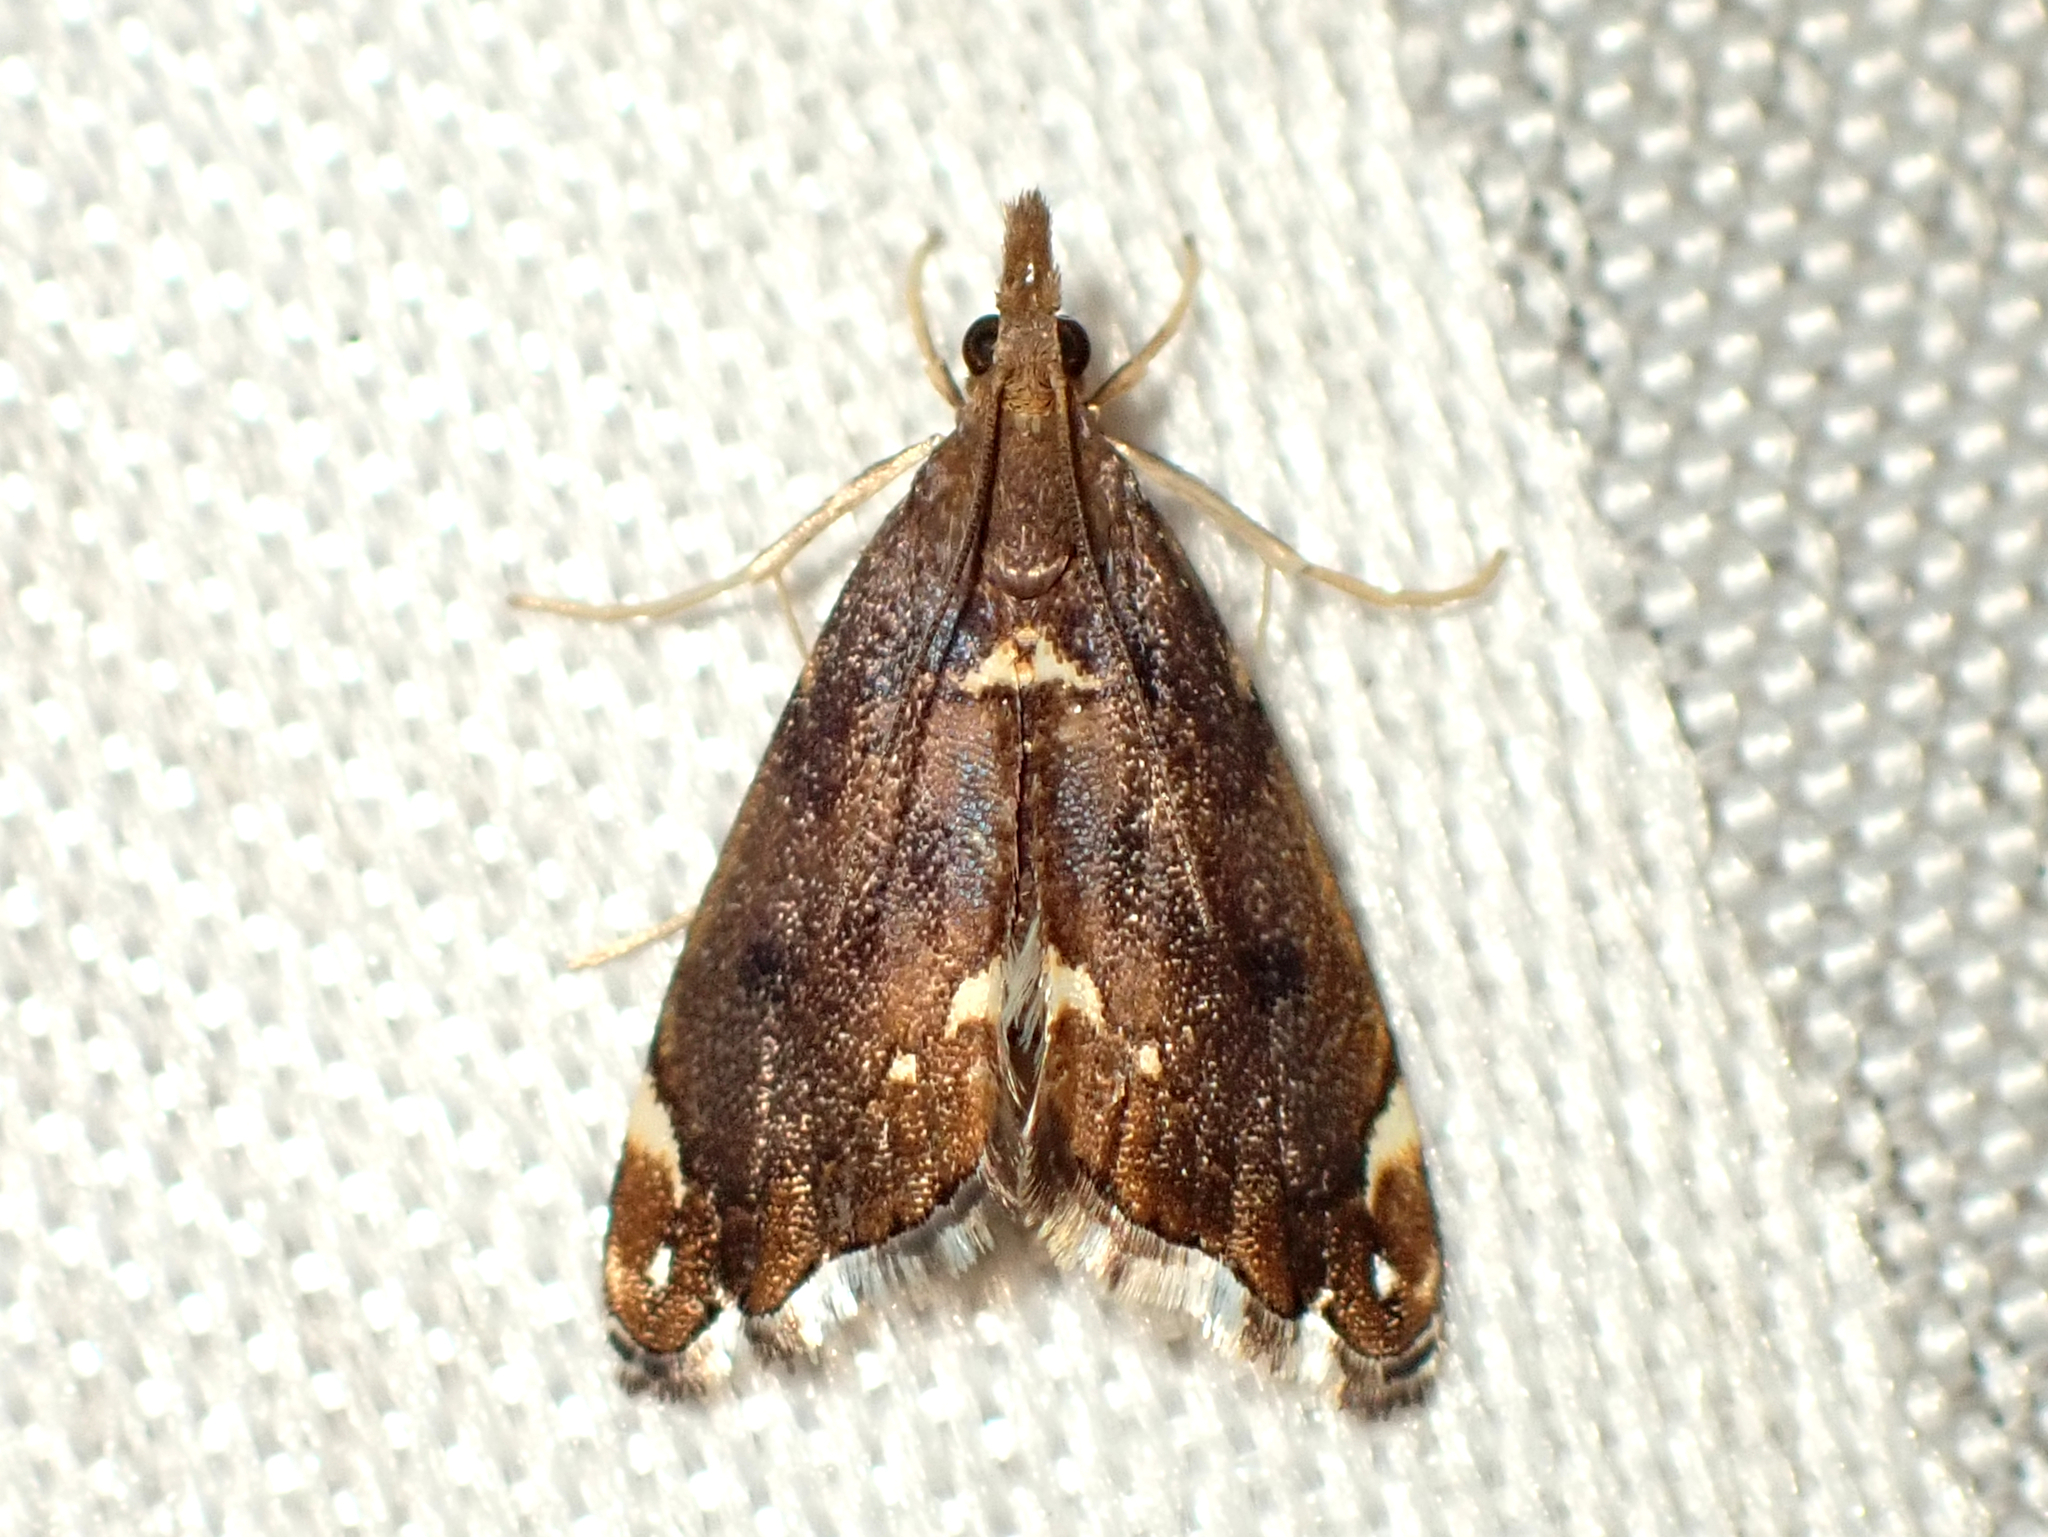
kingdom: Animalia
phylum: Arthropoda
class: Insecta
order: Lepidoptera
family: Crambidae
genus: Glaucocharis
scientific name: Glaucocharis pyrsophanes
